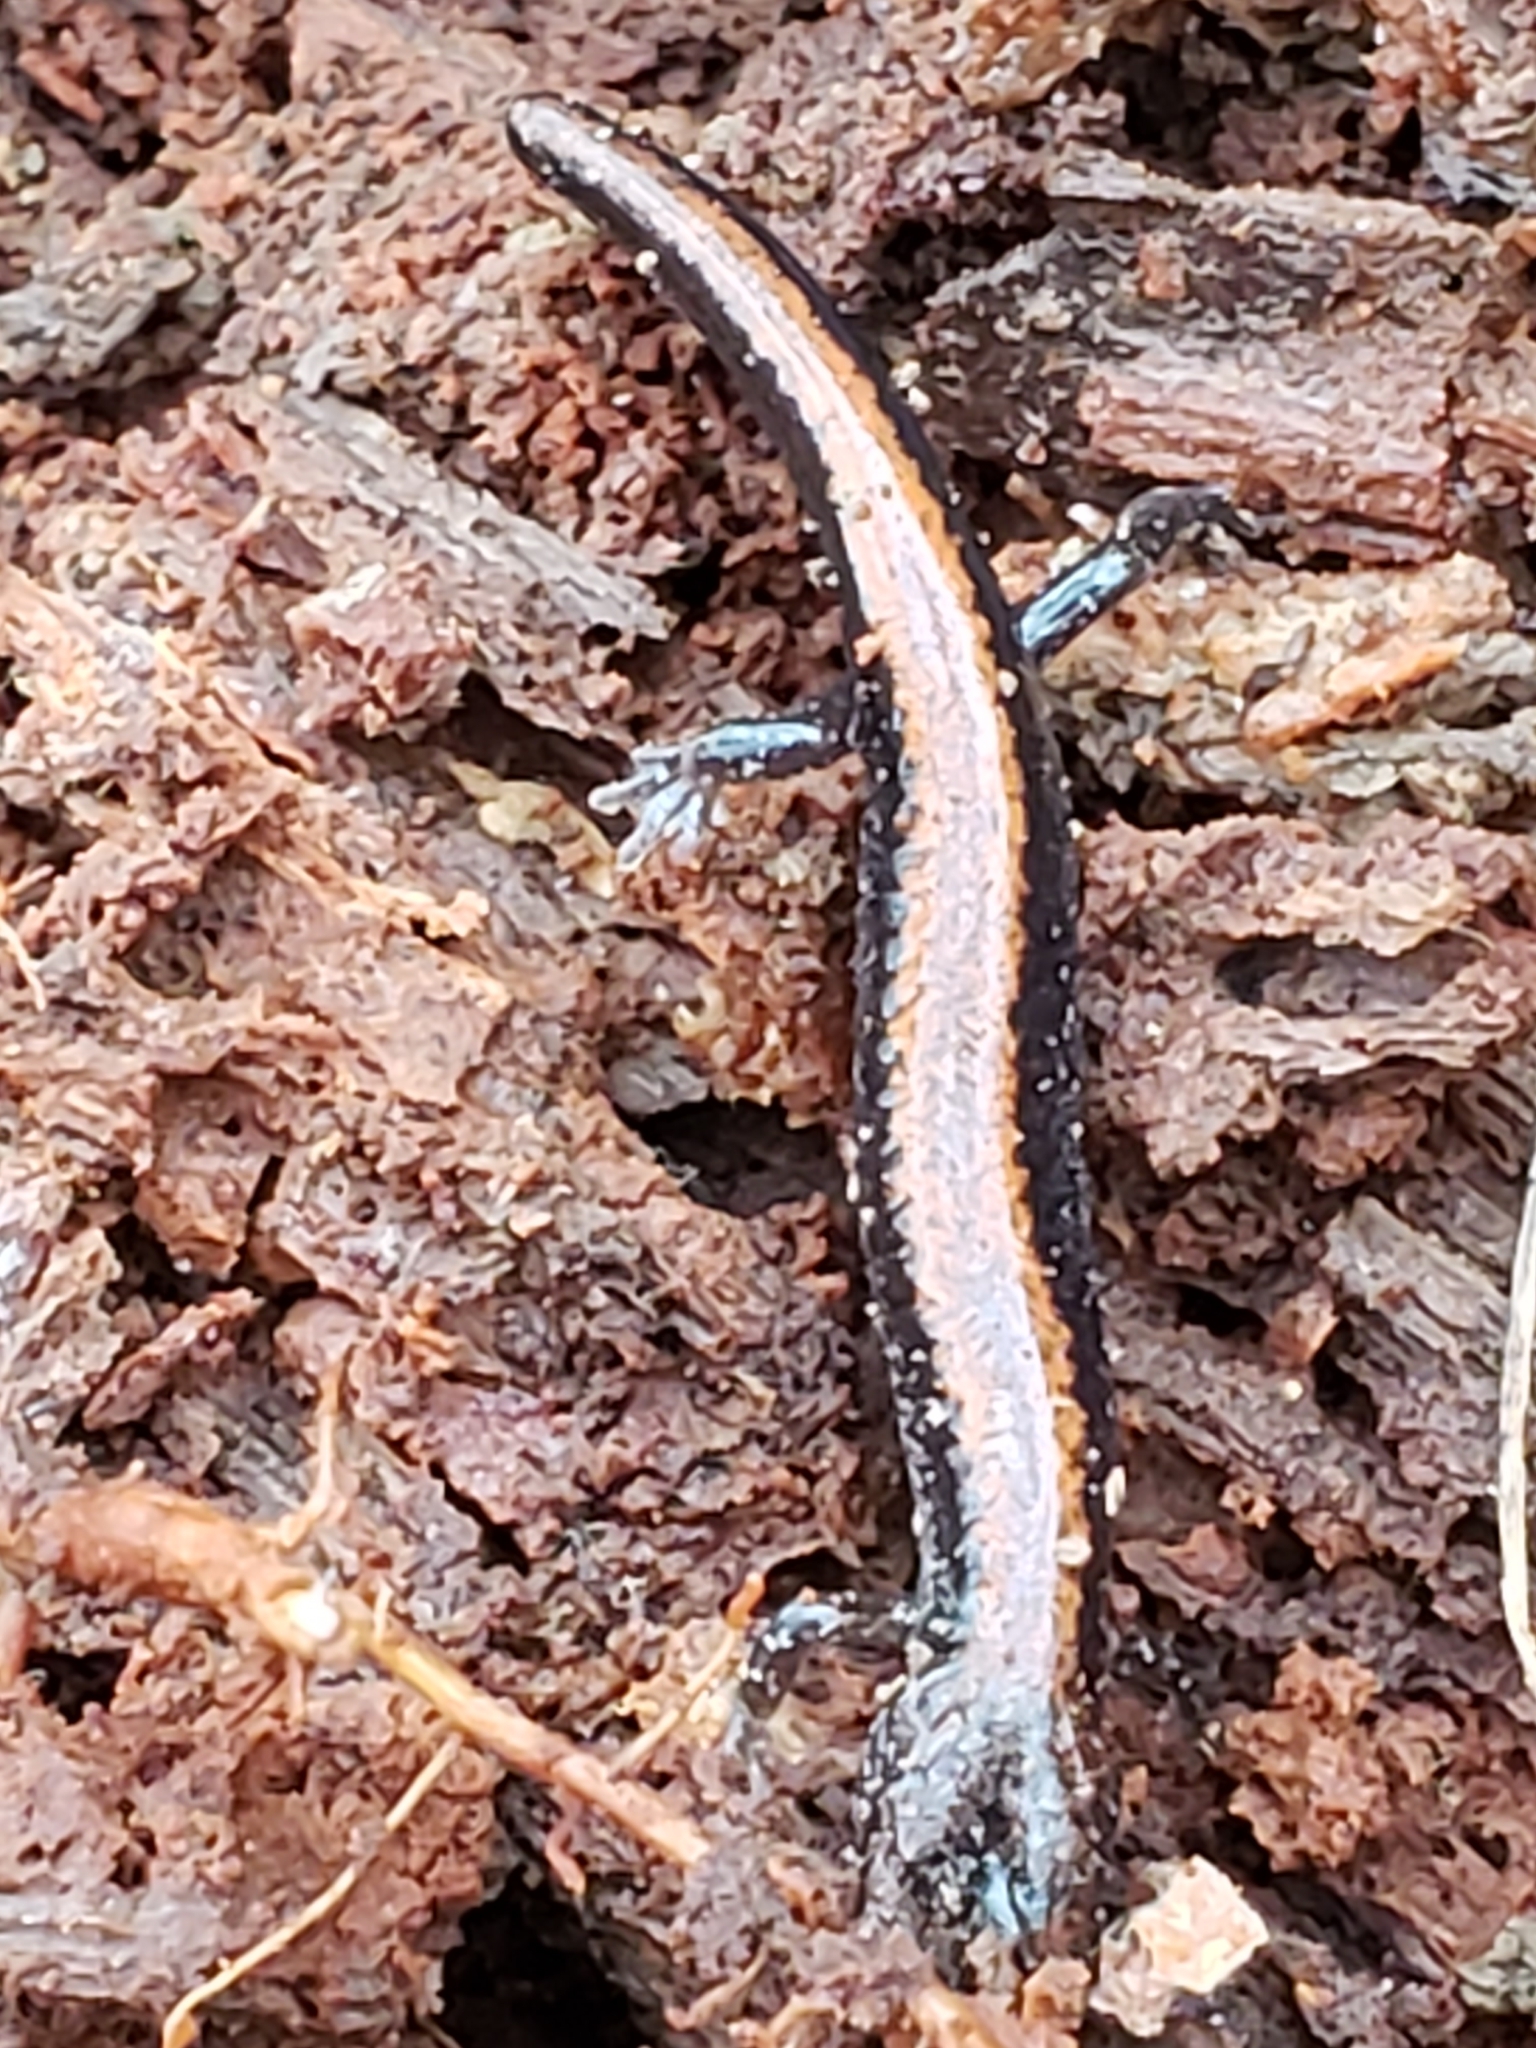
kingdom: Animalia
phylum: Chordata
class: Amphibia
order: Caudata
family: Plethodontidae
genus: Plethodon
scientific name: Plethodon cinereus
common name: Redback salamander
